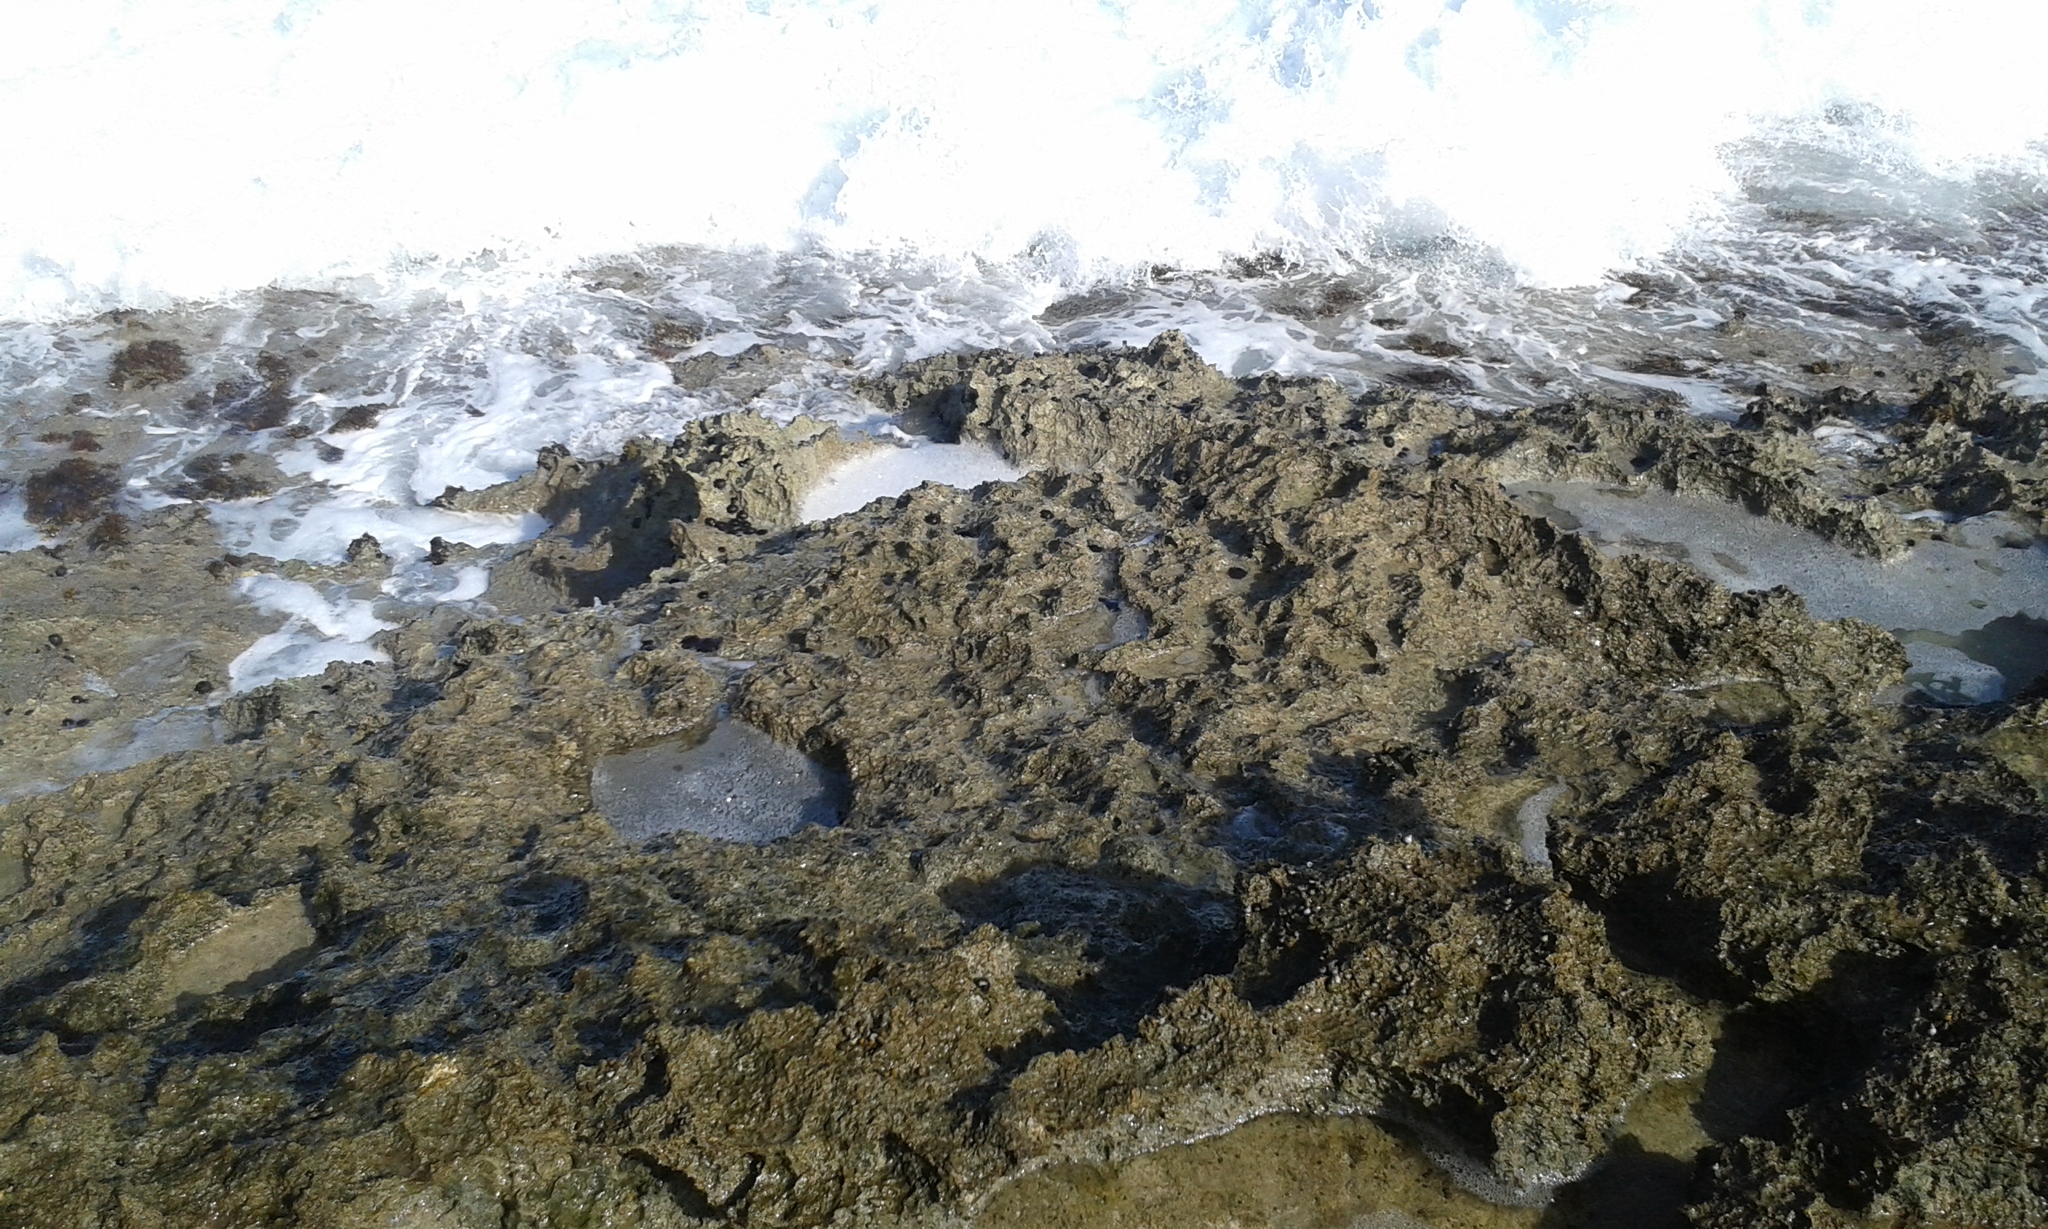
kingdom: Animalia
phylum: Echinodermata
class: Echinoidea
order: Camarodonta
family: Echinometridae
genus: Colobocentrotus
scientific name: Colobocentrotus atratus
